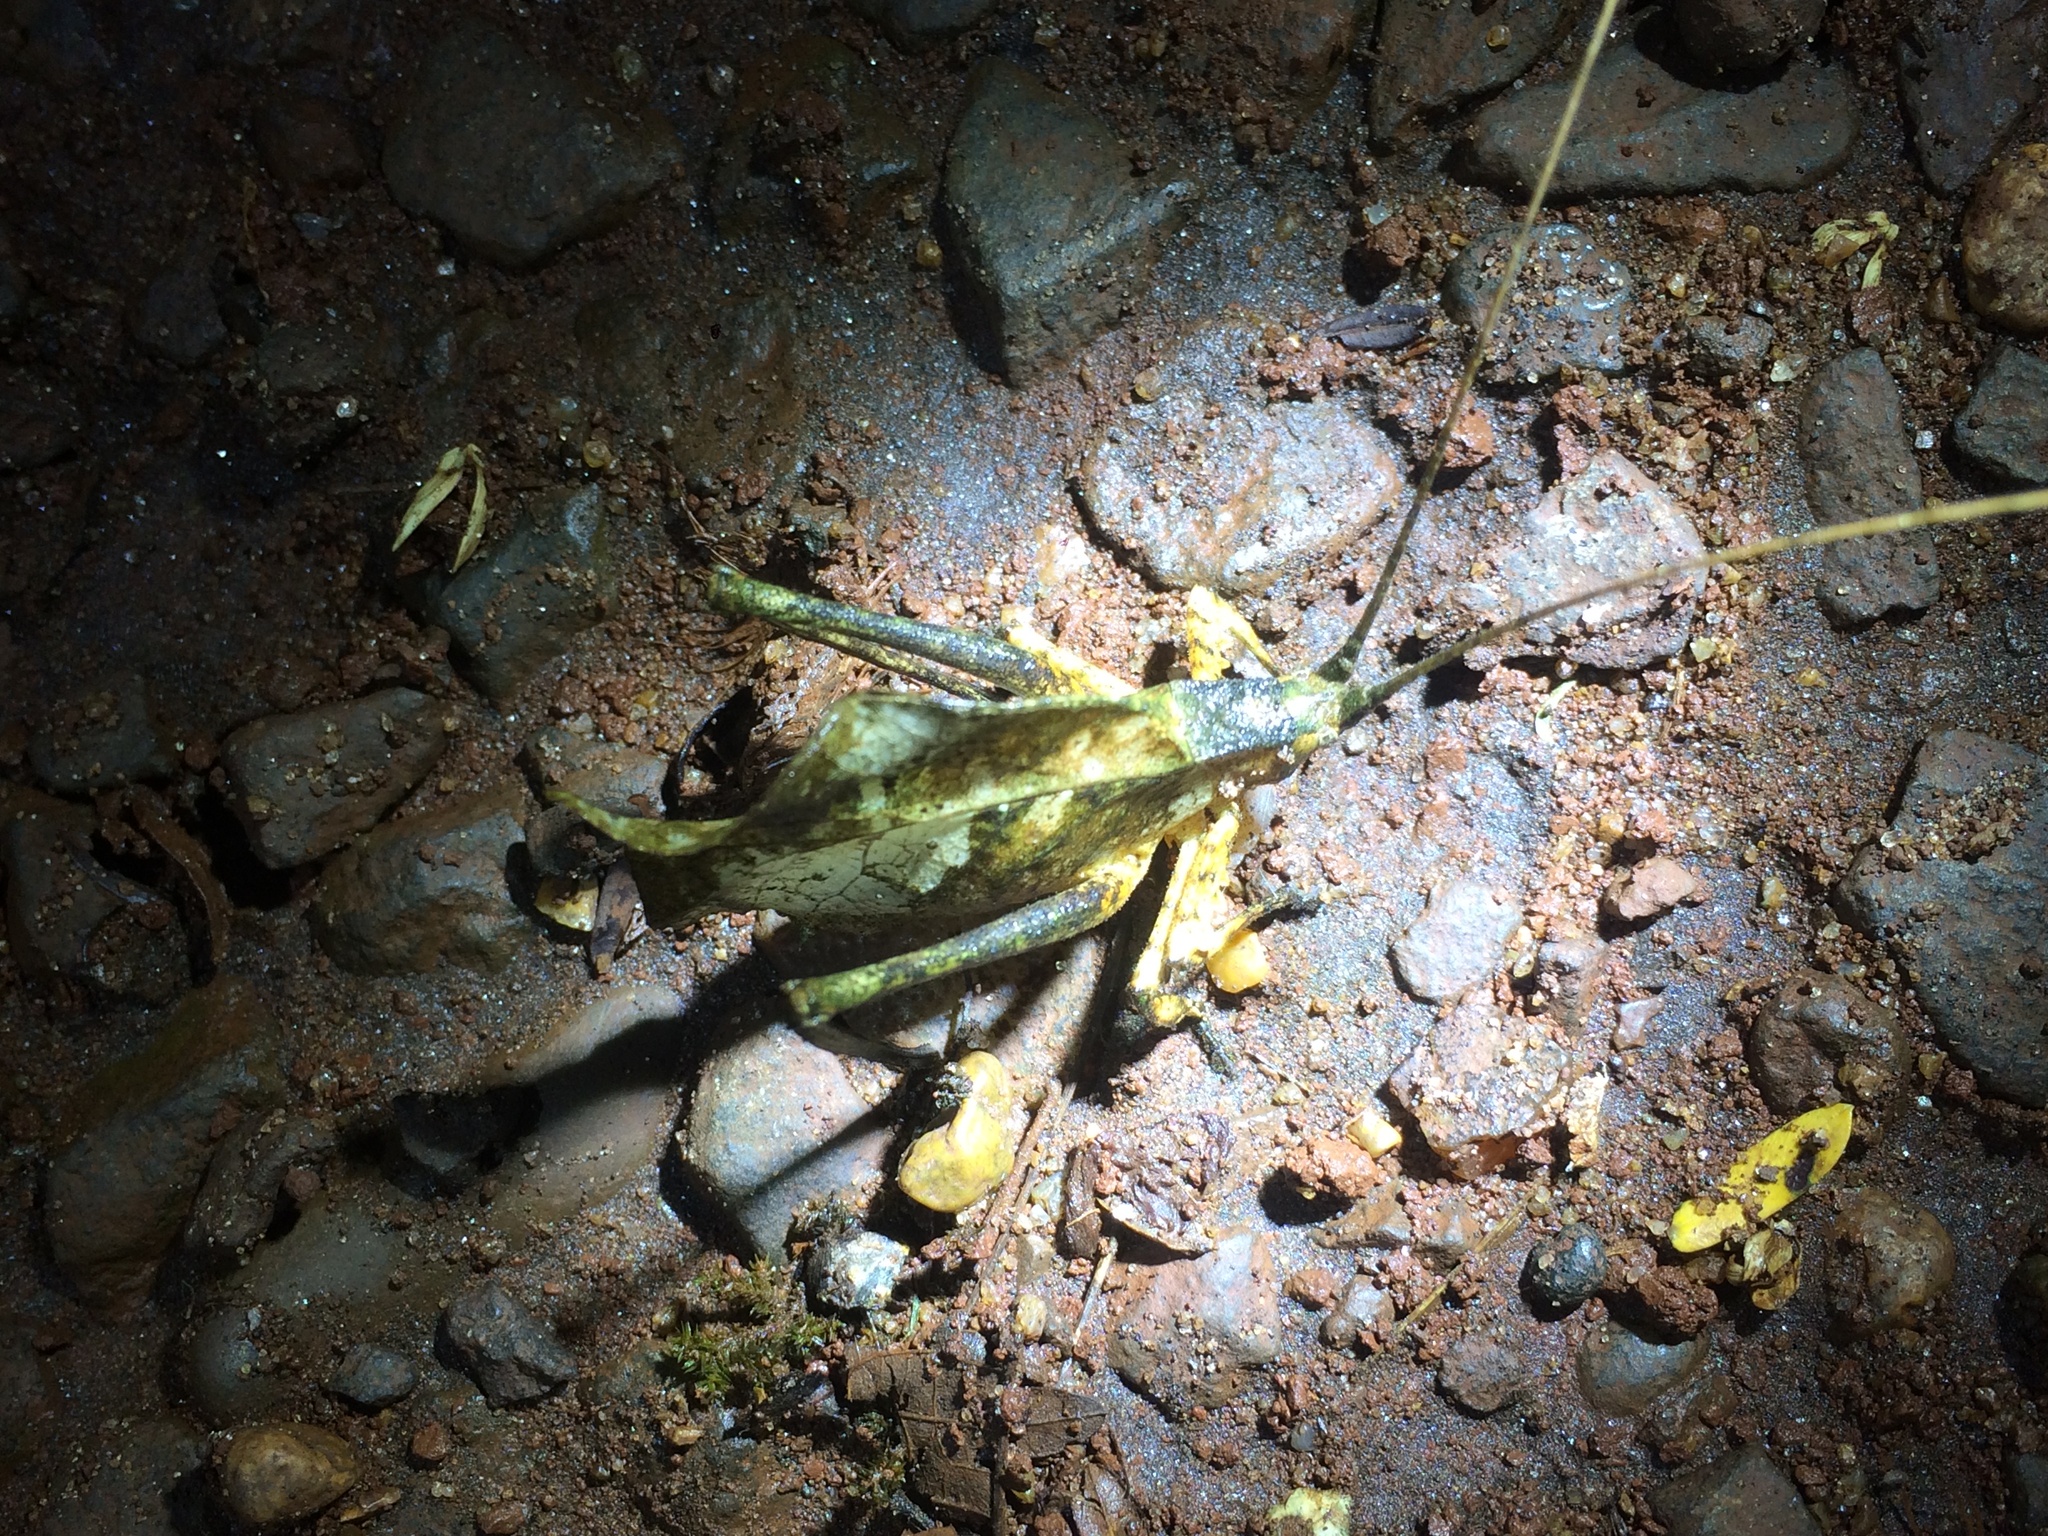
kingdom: Animalia
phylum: Arthropoda
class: Insecta
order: Orthoptera
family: Tettigoniidae
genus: Typophyllum
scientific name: Typophyllum inflatum
